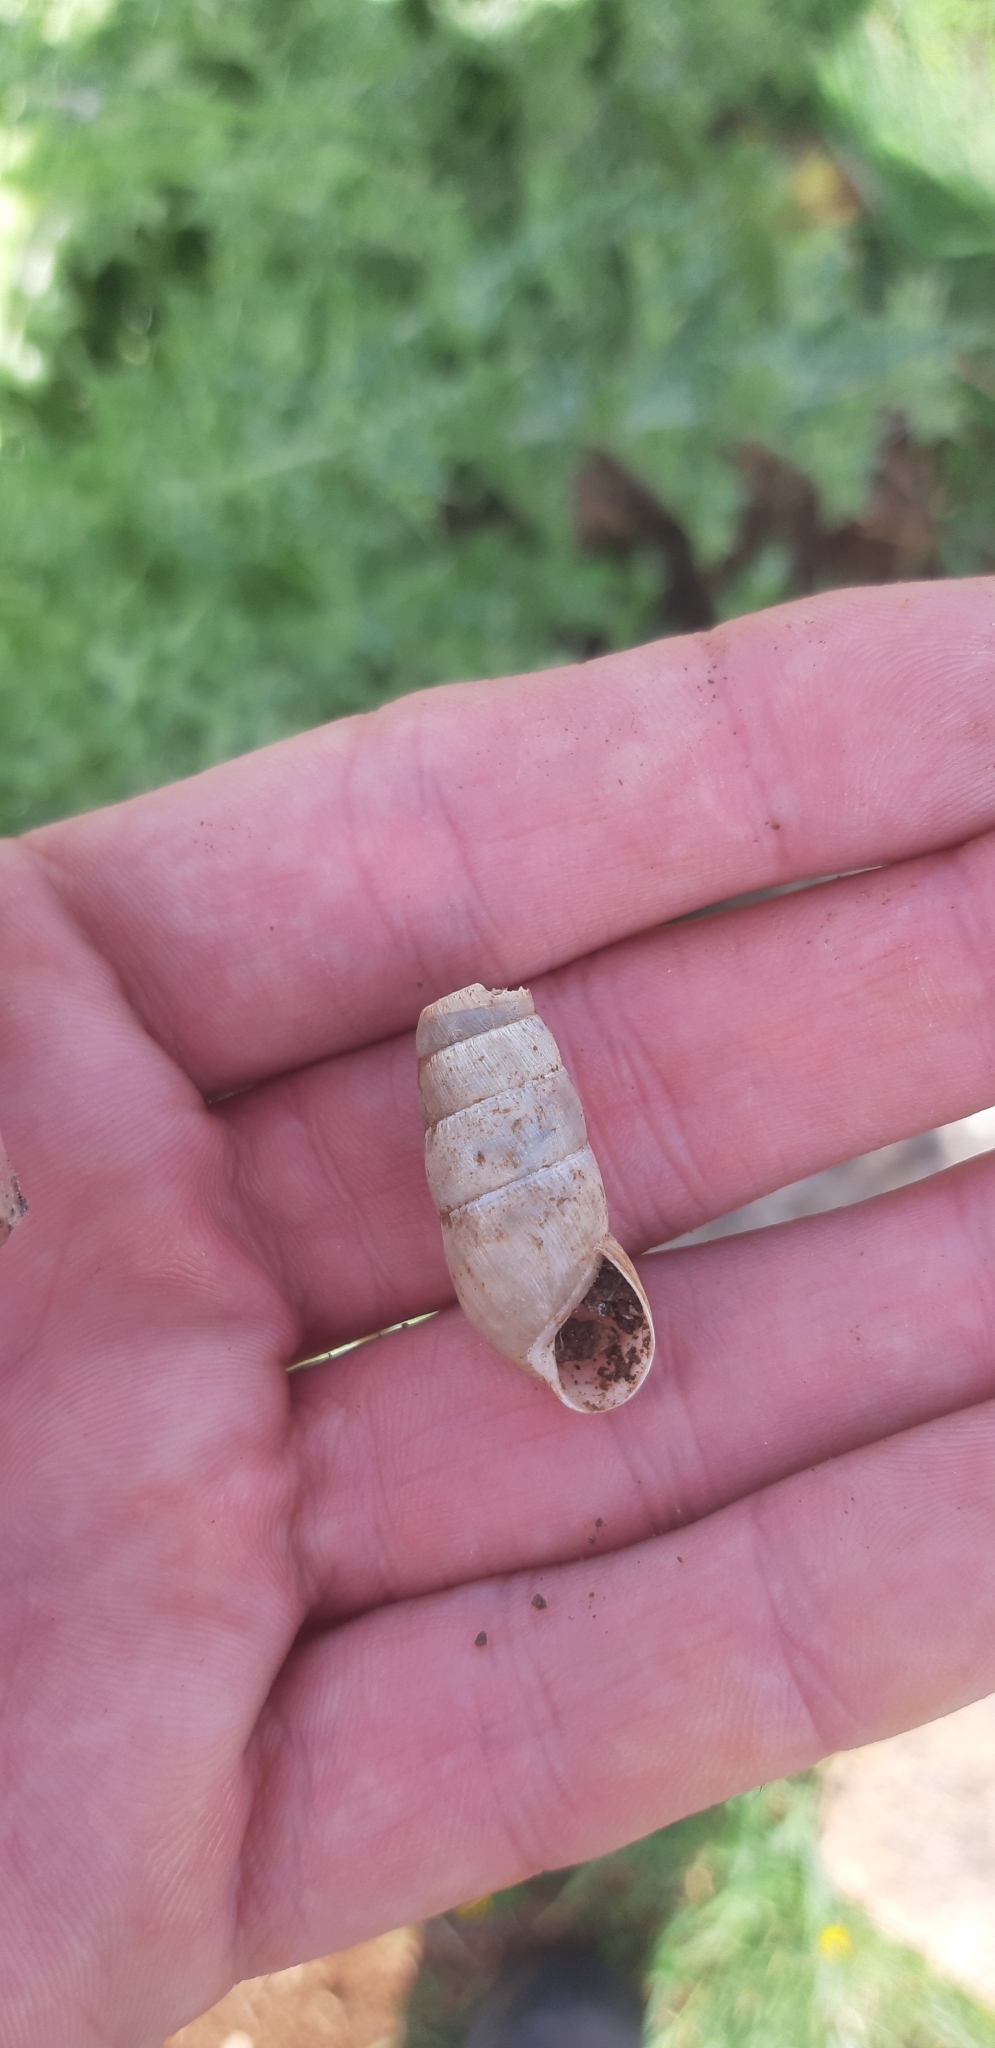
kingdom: Animalia
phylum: Mollusca
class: Gastropoda
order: Stylommatophora
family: Achatinidae
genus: Rumina
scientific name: Rumina decollata
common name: Decollate snail
